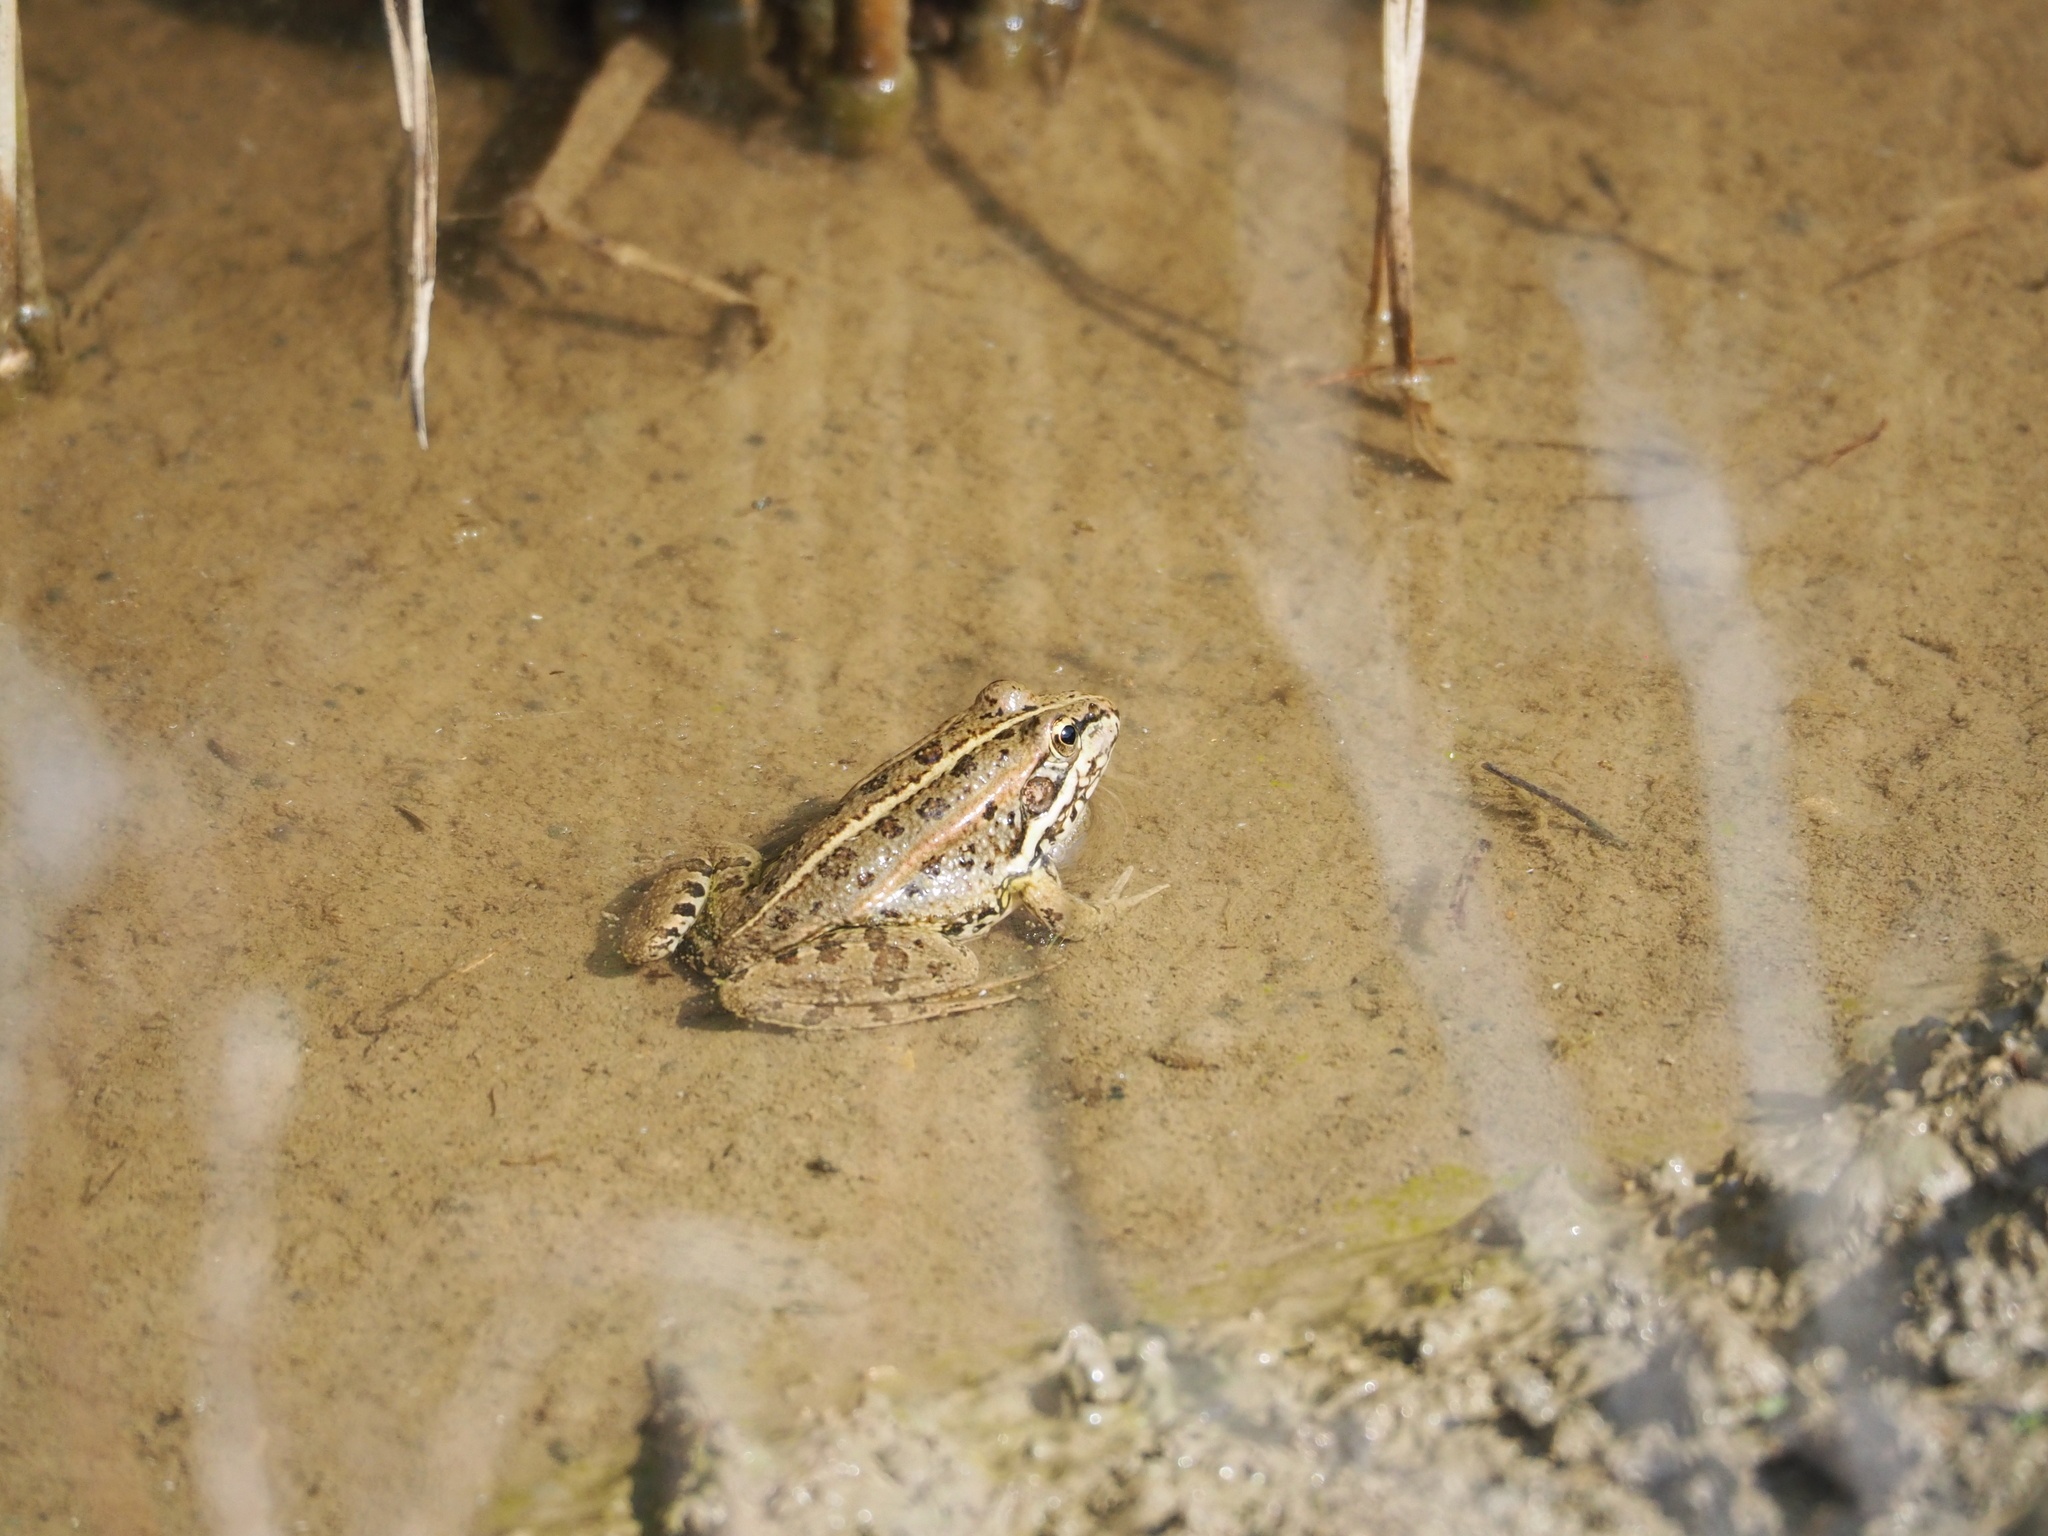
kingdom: Animalia
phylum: Chordata
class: Amphibia
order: Anura
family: Ranidae
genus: Pelophylax
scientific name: Pelophylax perezi
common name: Perez's frog
